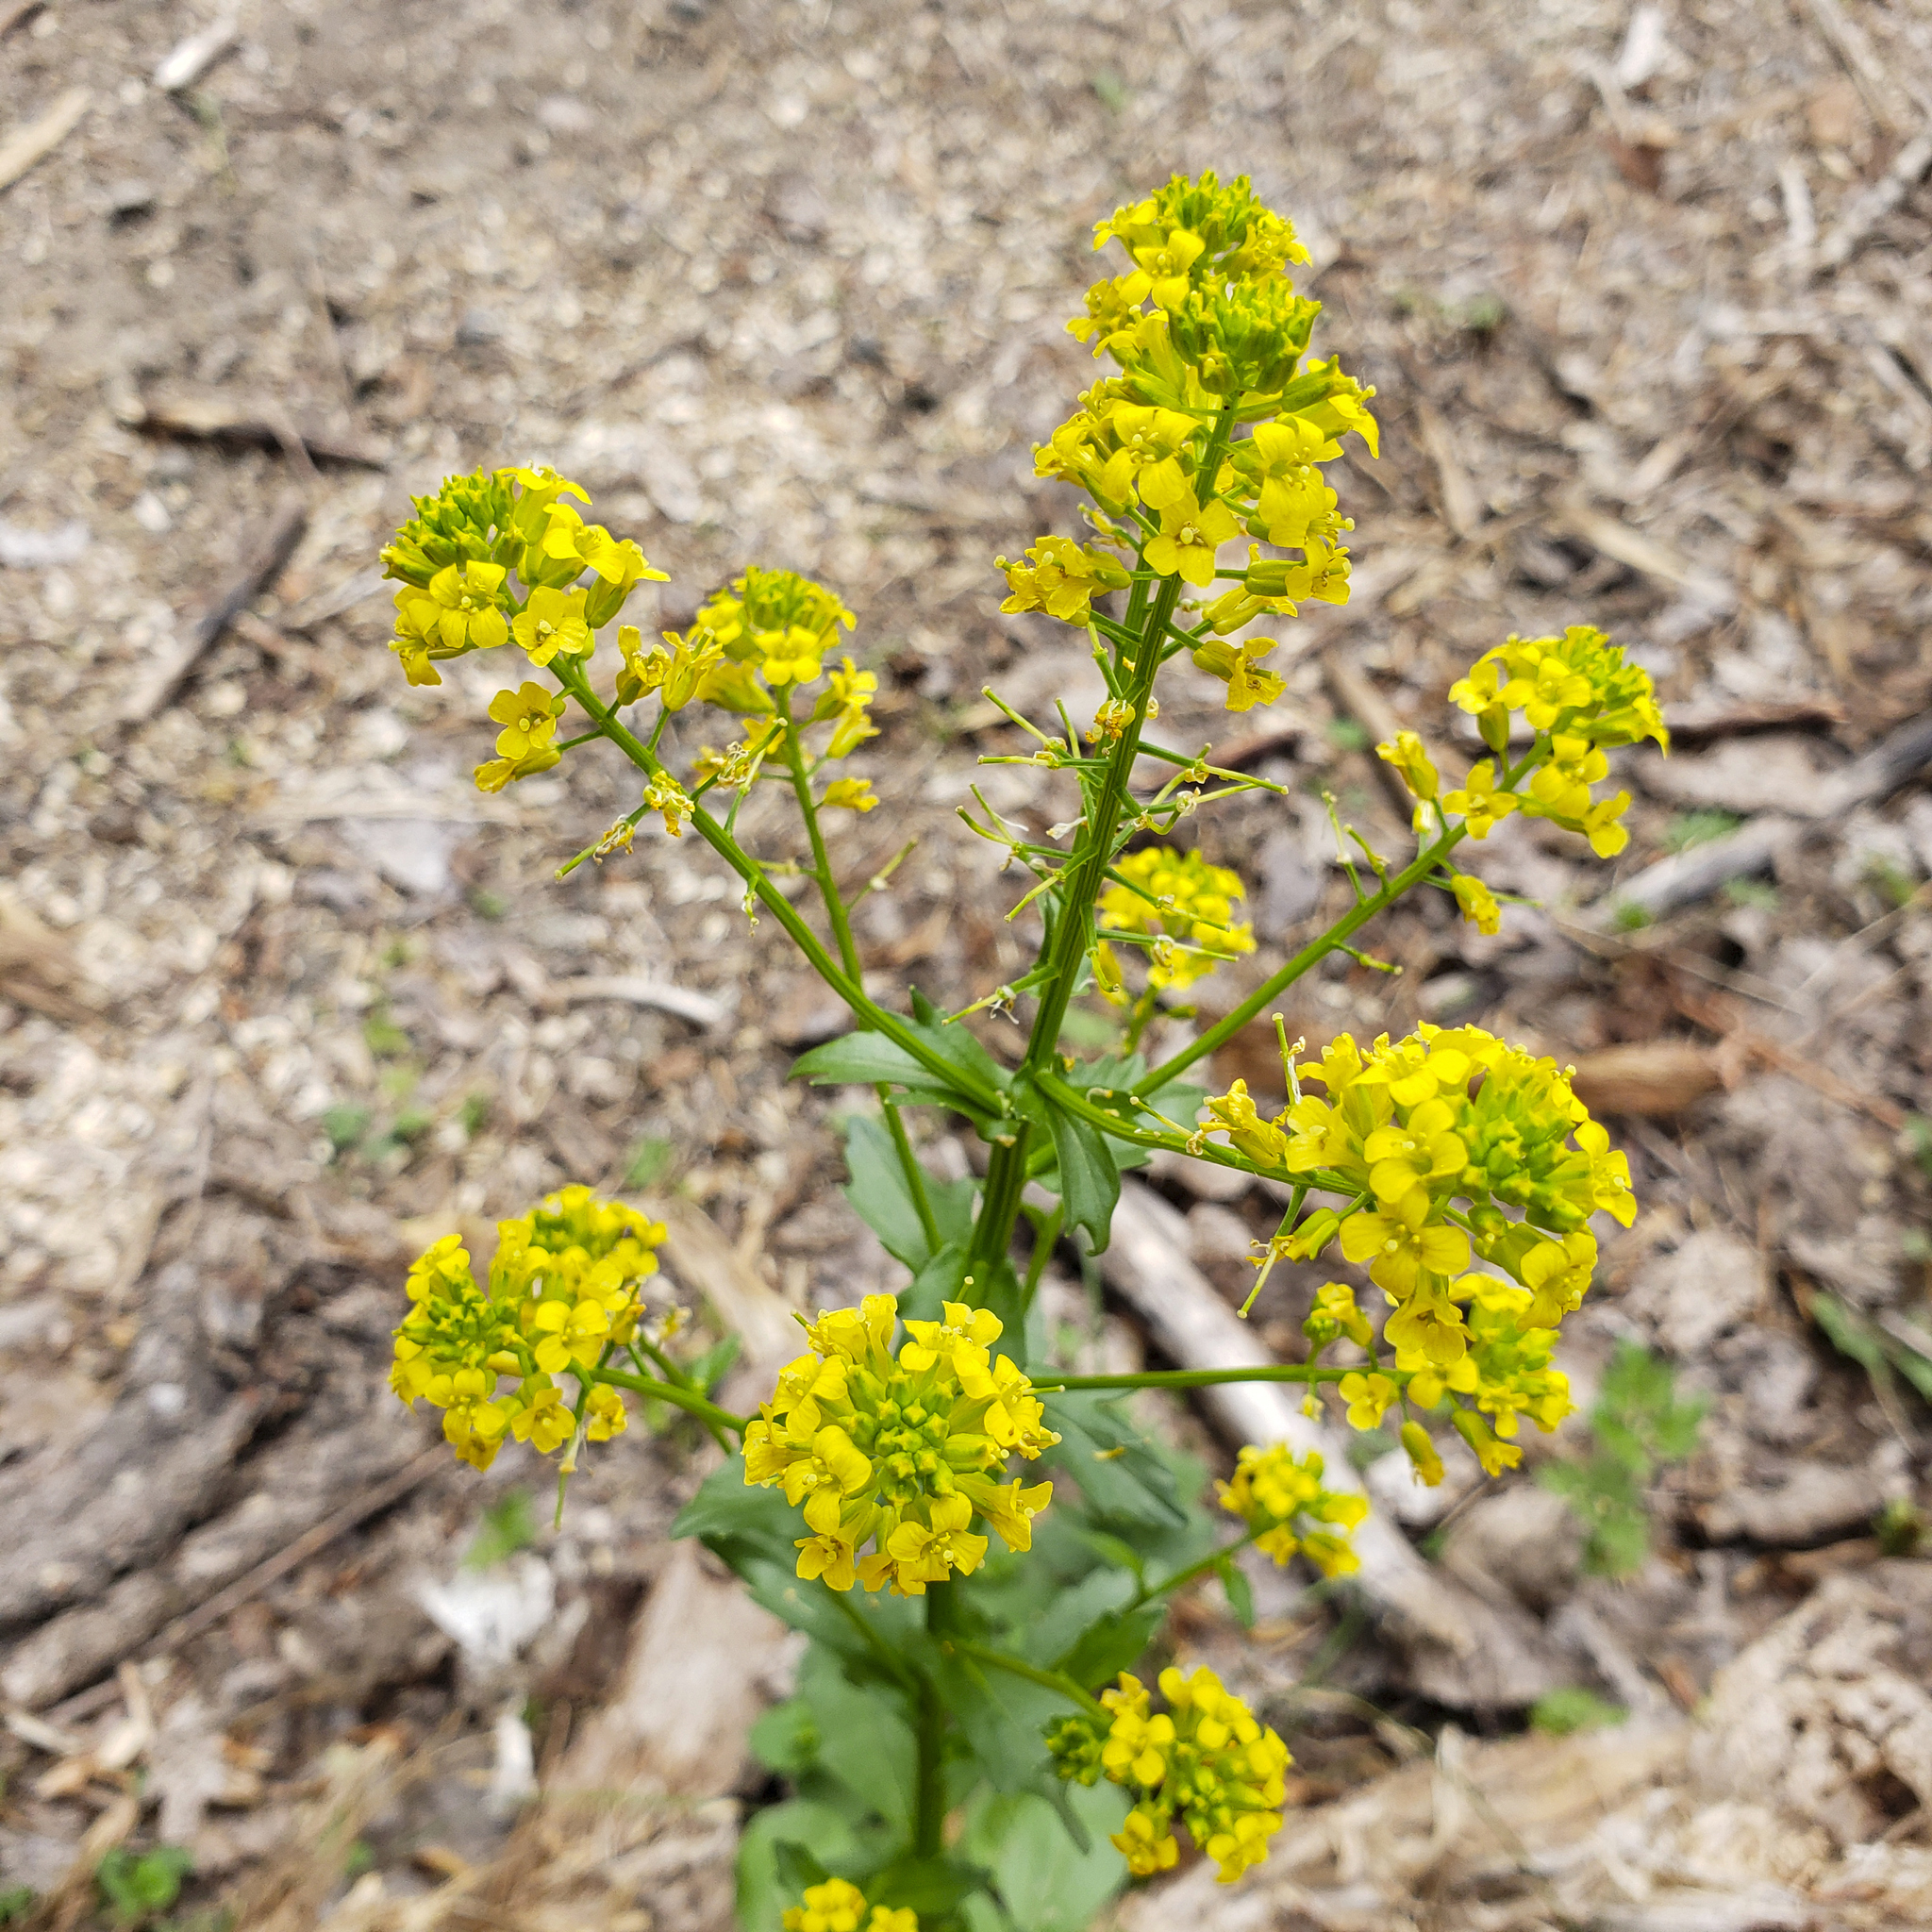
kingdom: Plantae
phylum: Tracheophyta
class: Magnoliopsida
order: Brassicales
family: Brassicaceae
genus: Barbarea
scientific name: Barbarea vulgaris
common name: Cressy-greens
